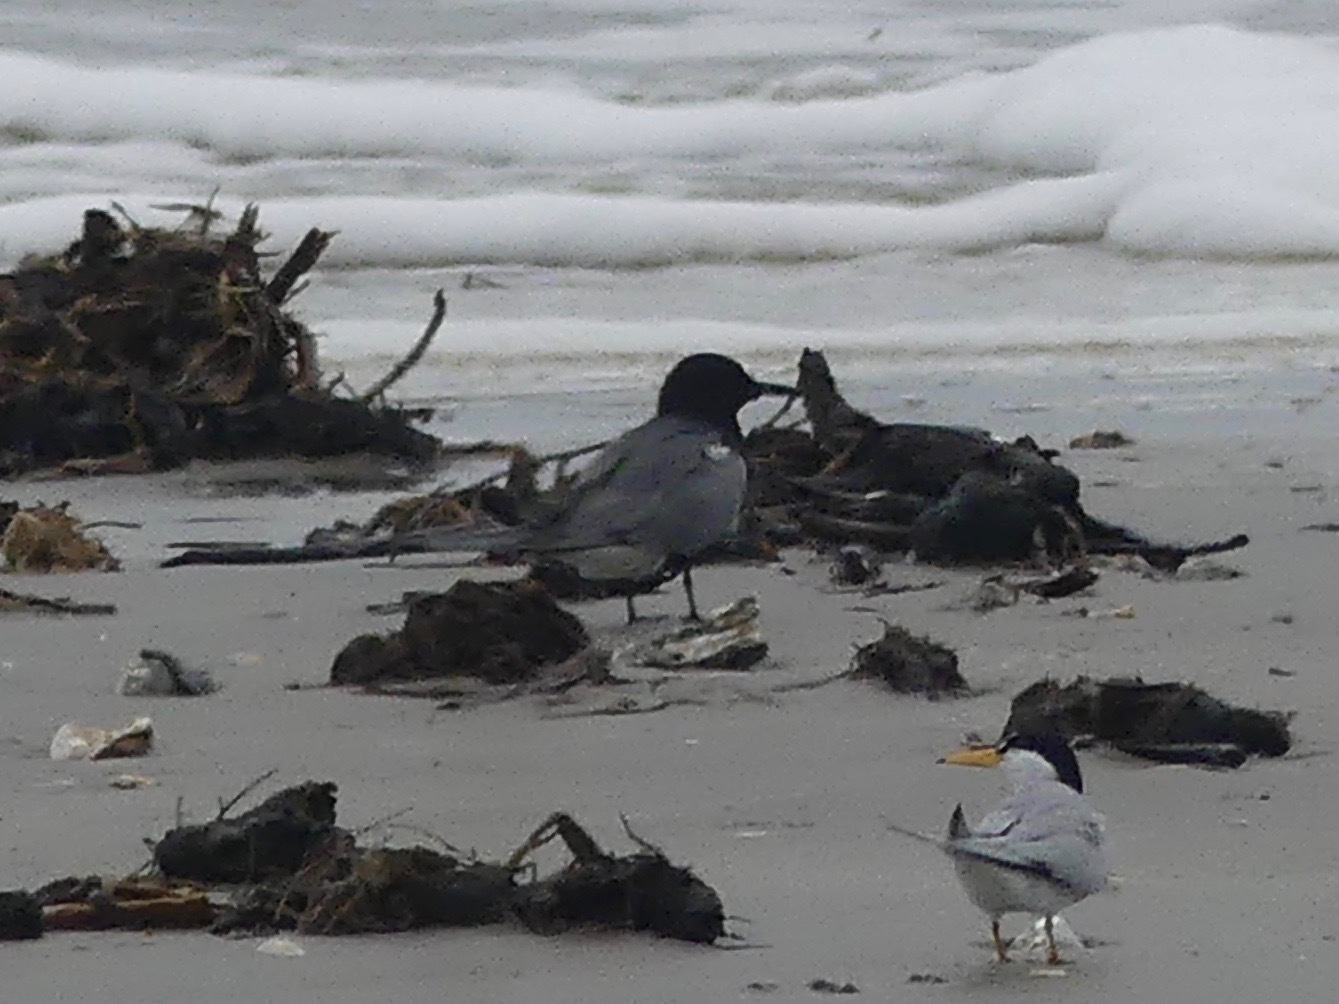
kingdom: Animalia
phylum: Chordata
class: Aves
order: Charadriiformes
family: Laridae
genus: Chlidonias
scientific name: Chlidonias niger
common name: Black tern
